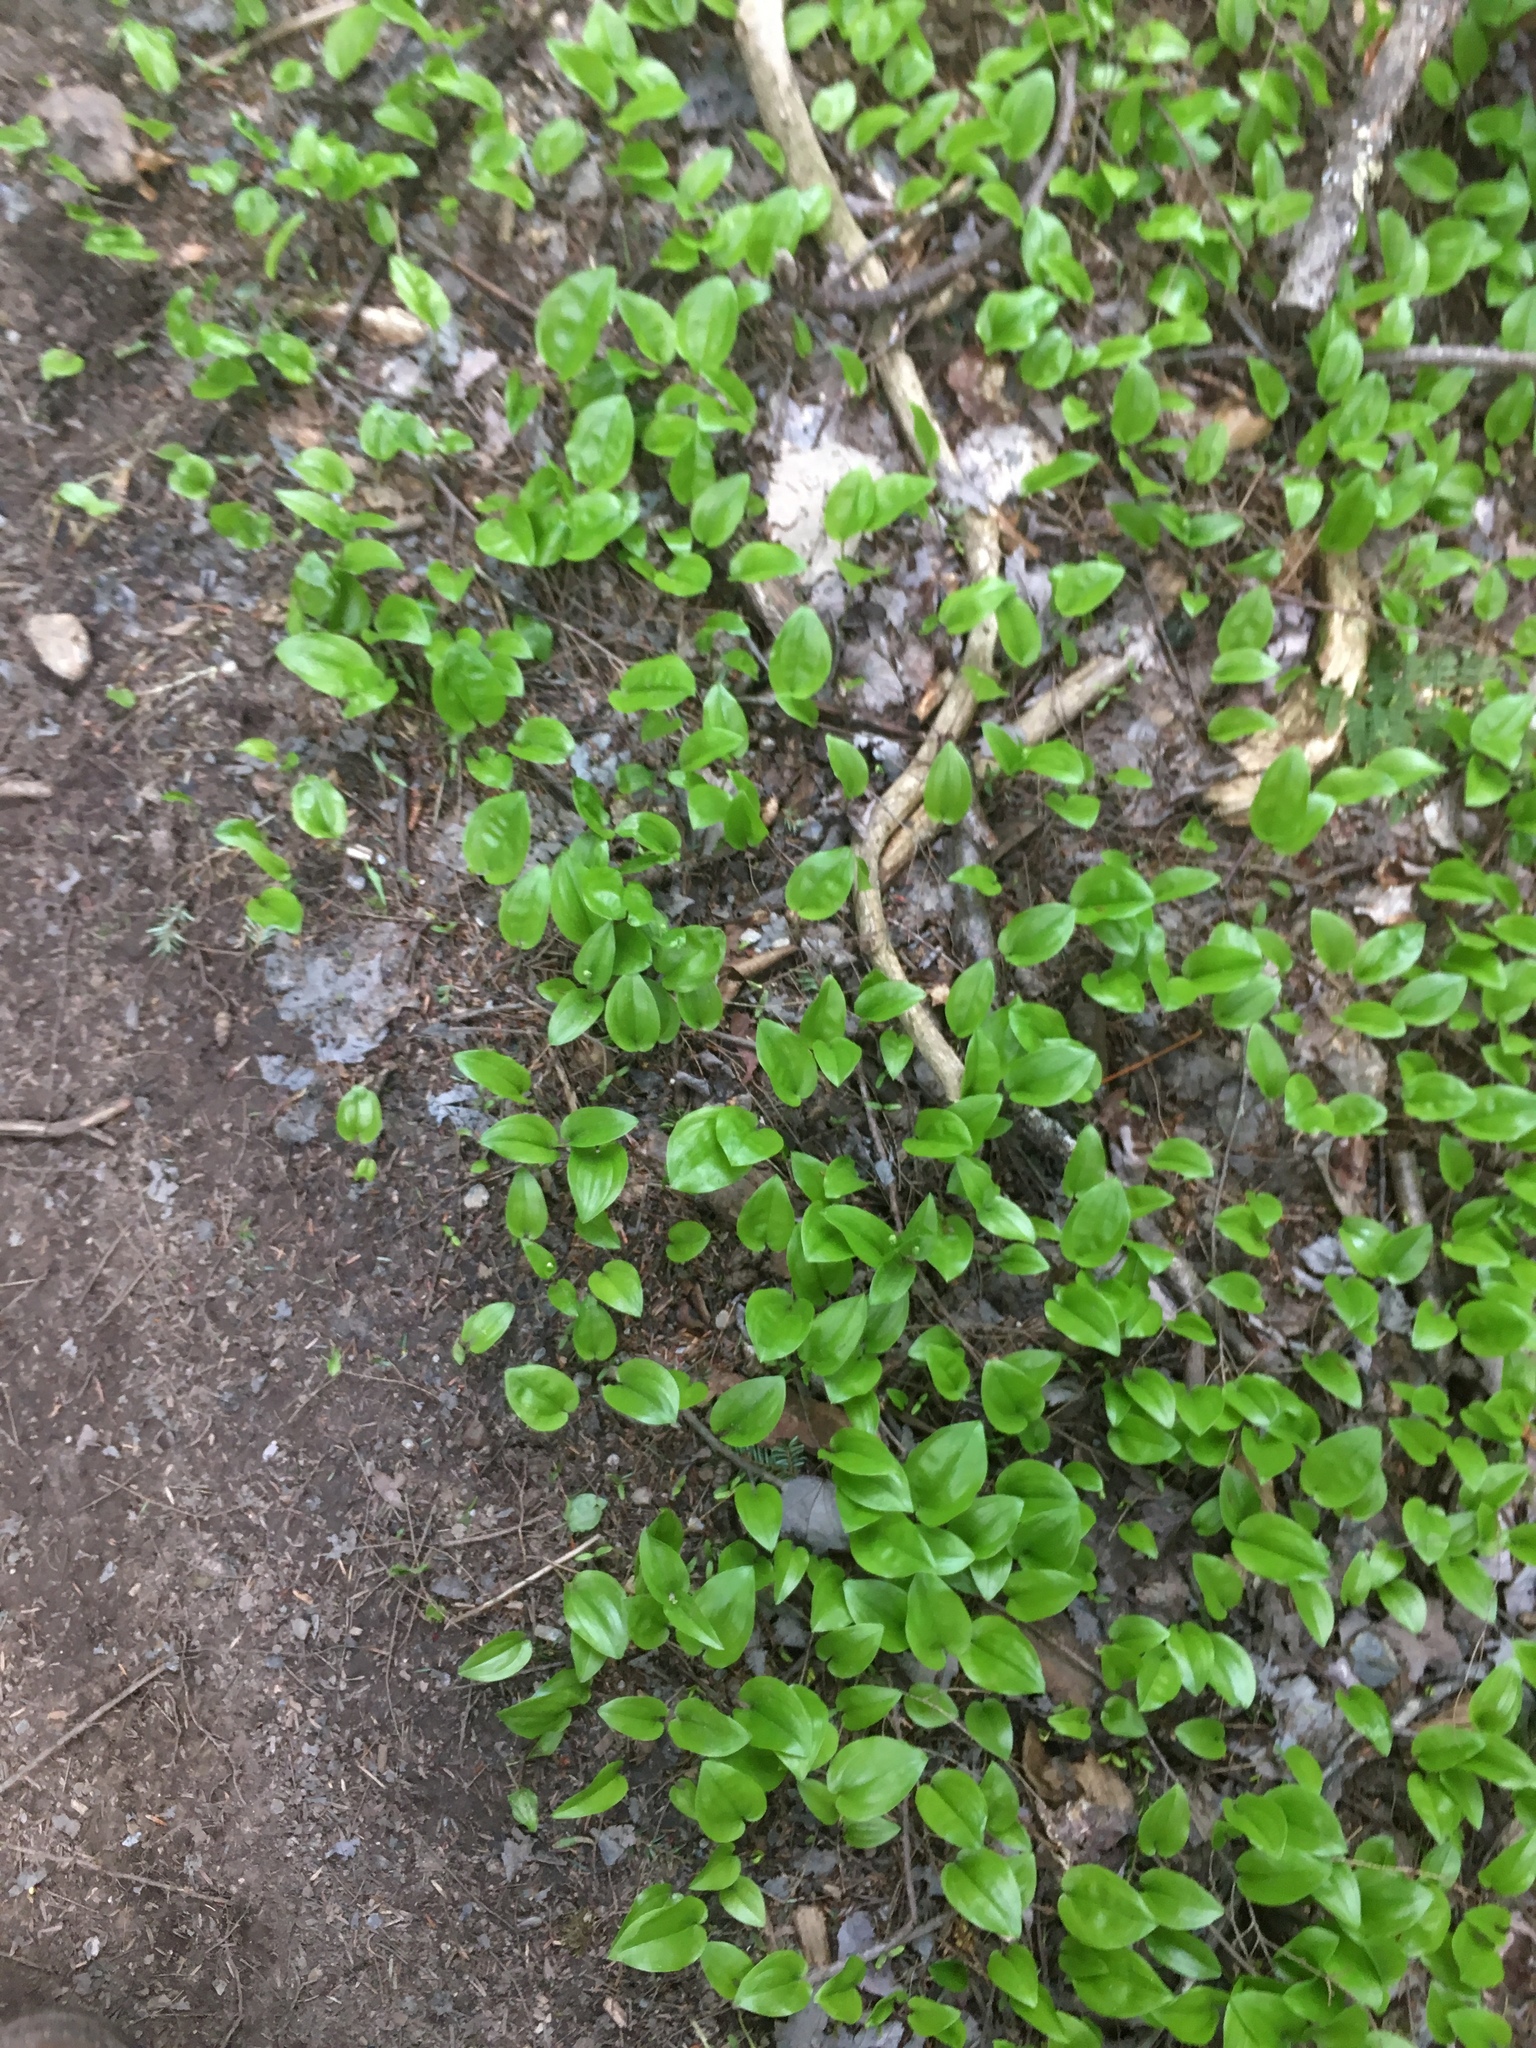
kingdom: Plantae
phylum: Tracheophyta
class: Liliopsida
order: Asparagales
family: Asparagaceae
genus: Maianthemum
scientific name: Maianthemum canadense
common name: False lily-of-the-valley
